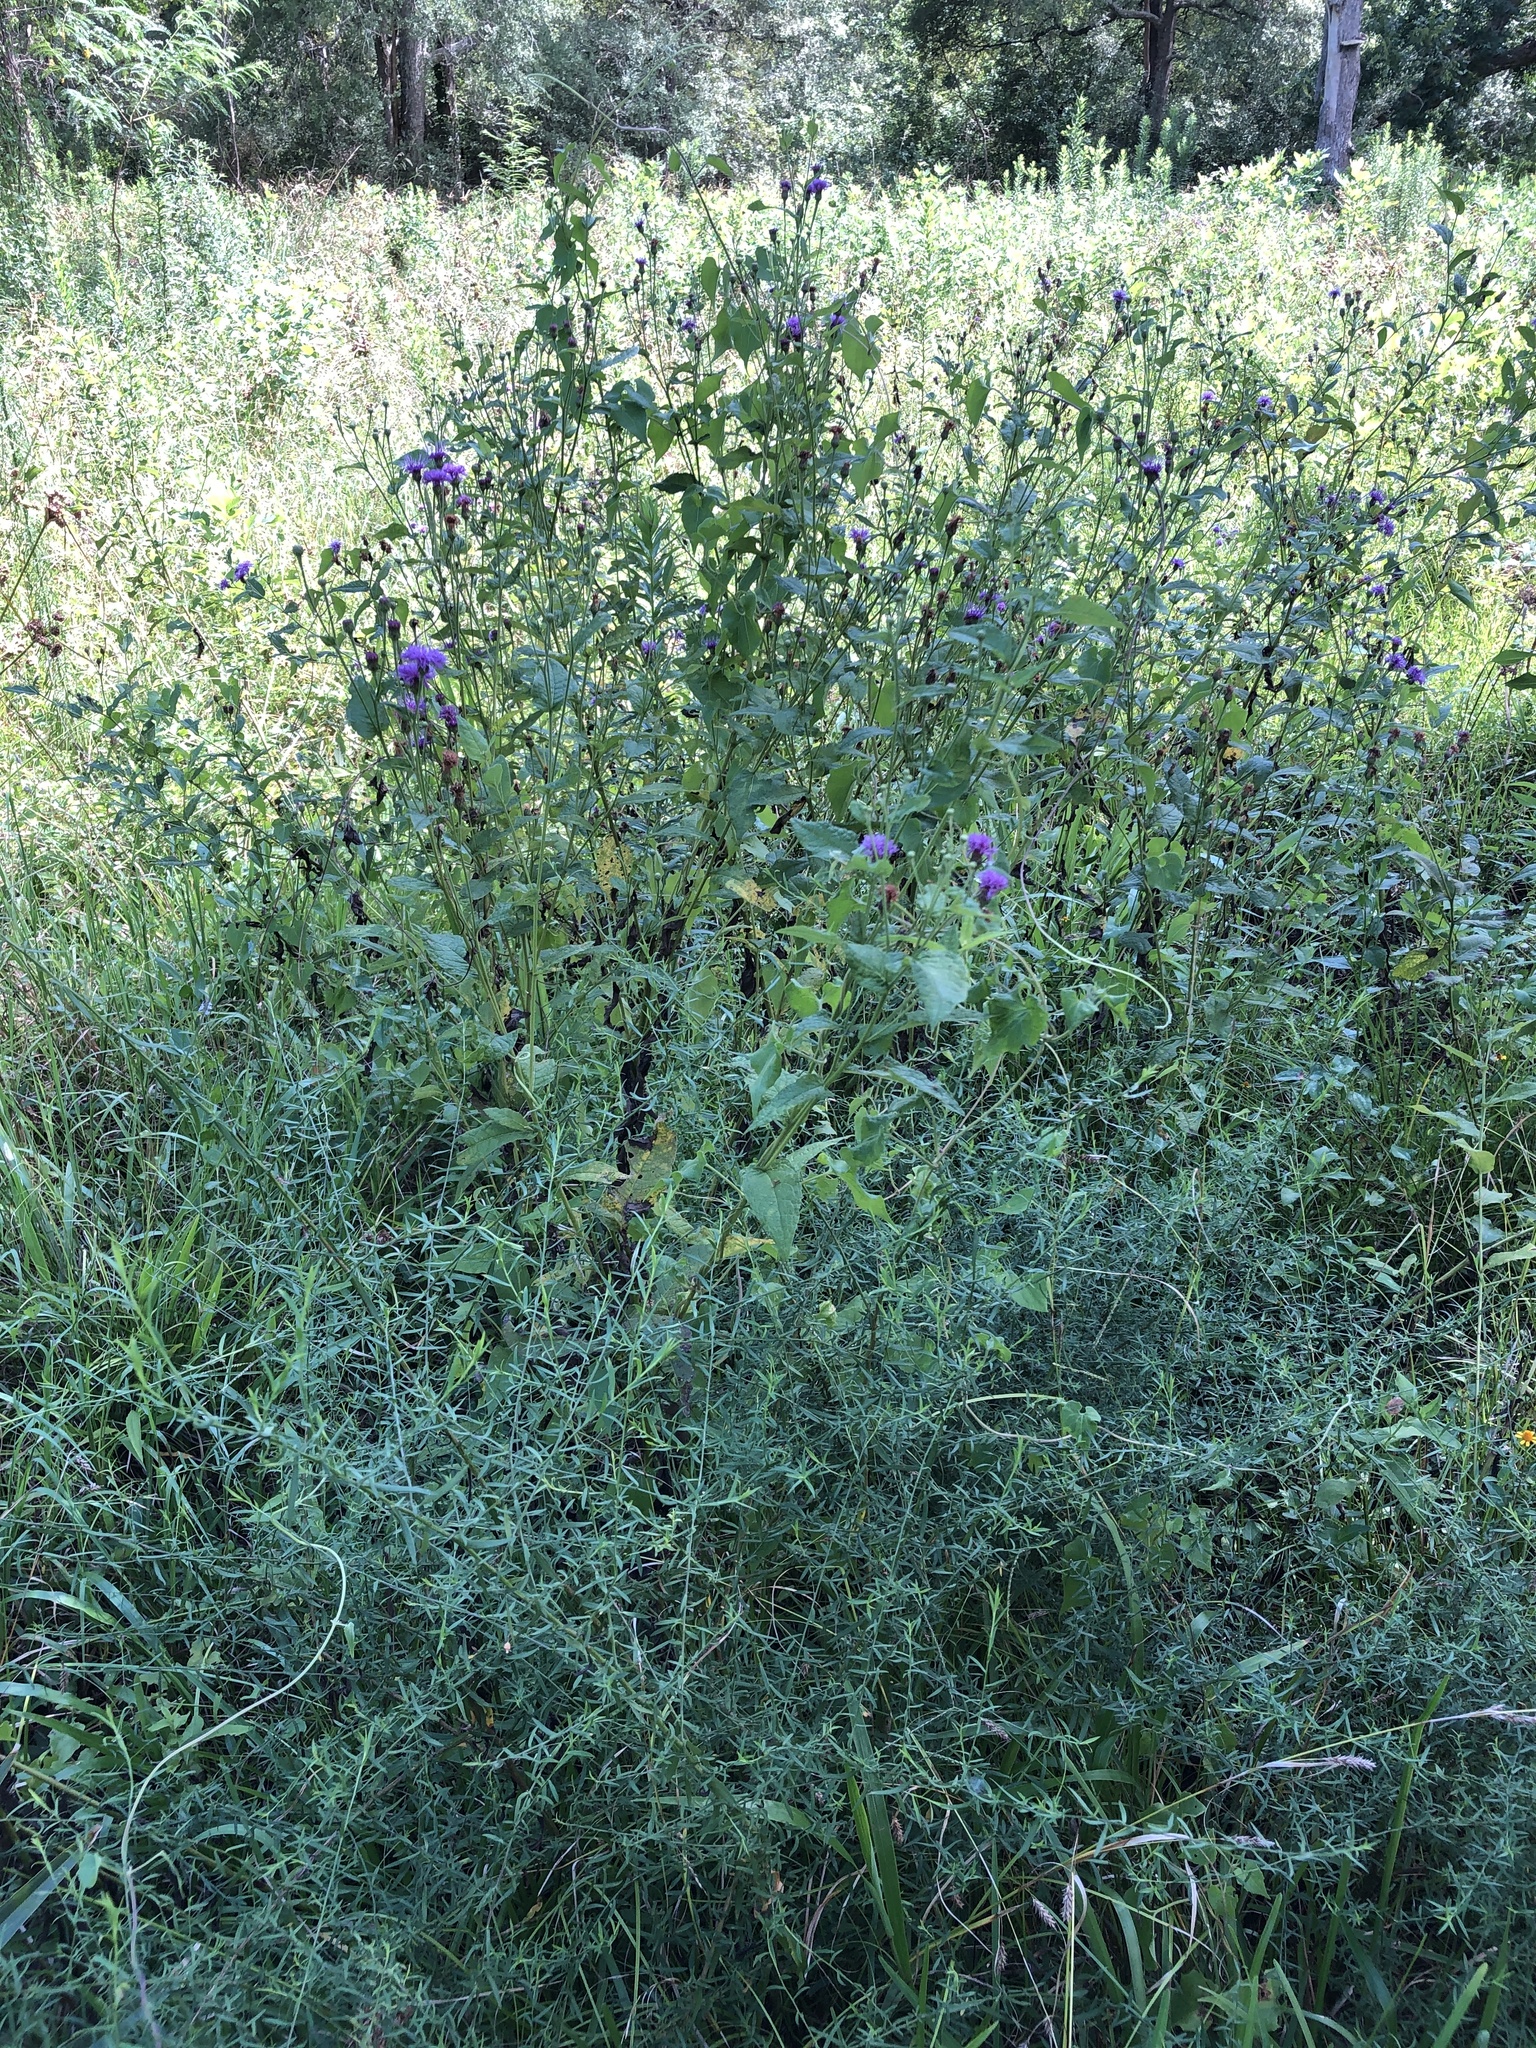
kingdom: Plantae
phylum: Tracheophyta
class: Magnoliopsida
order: Asterales
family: Asteraceae
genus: Vernonia
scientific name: Vernonia missurica
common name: Missouri ironweed
